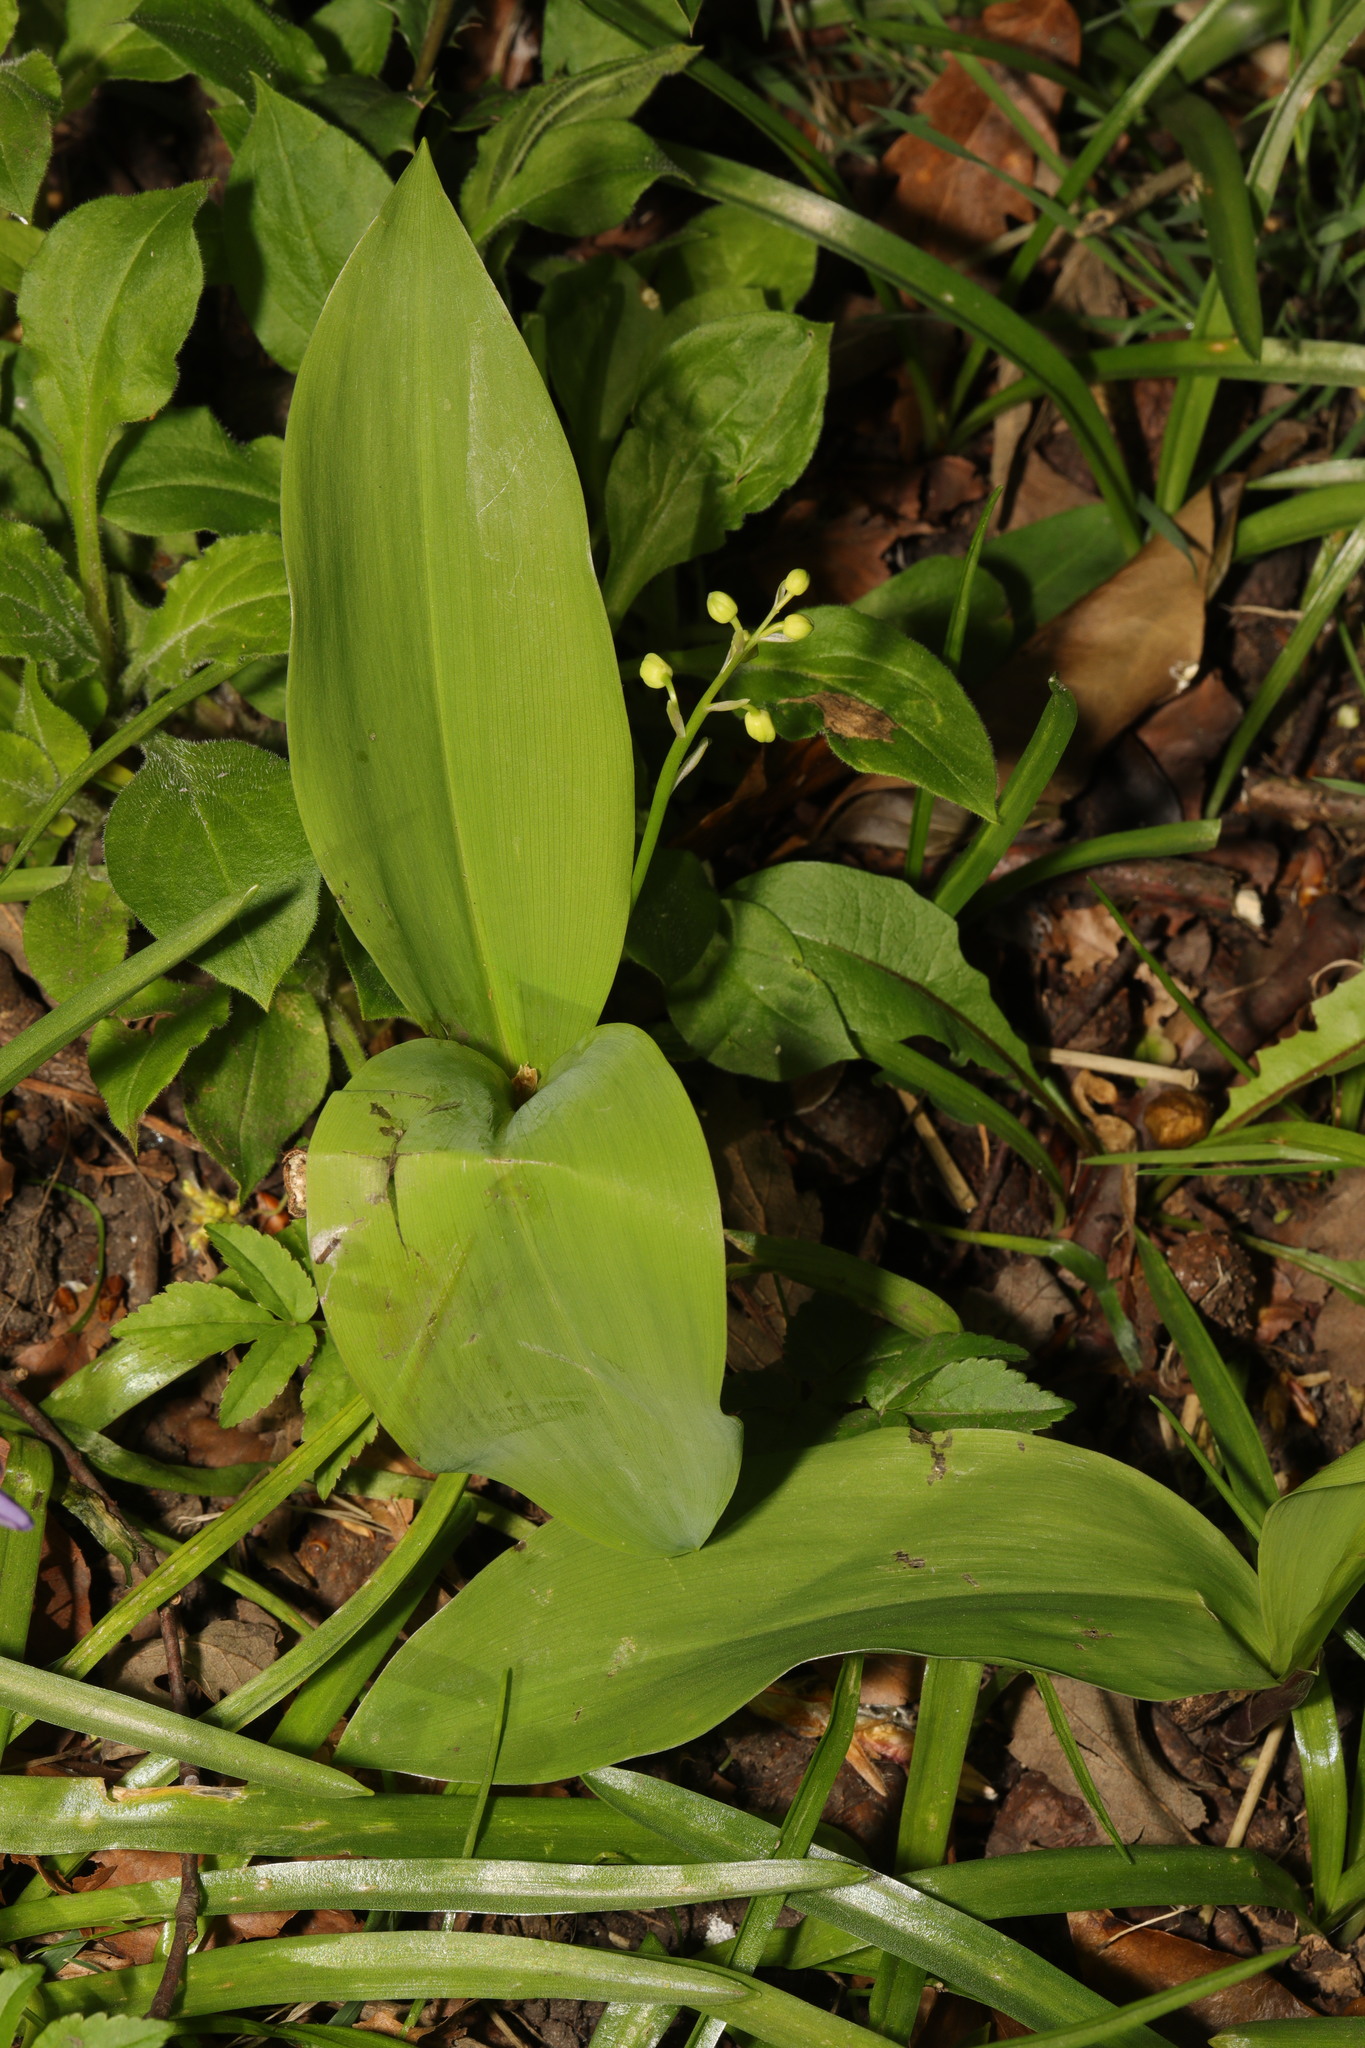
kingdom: Plantae
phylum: Tracheophyta
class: Liliopsida
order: Asparagales
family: Asparagaceae
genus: Convallaria
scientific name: Convallaria majalis
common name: Lily-of-the-valley
